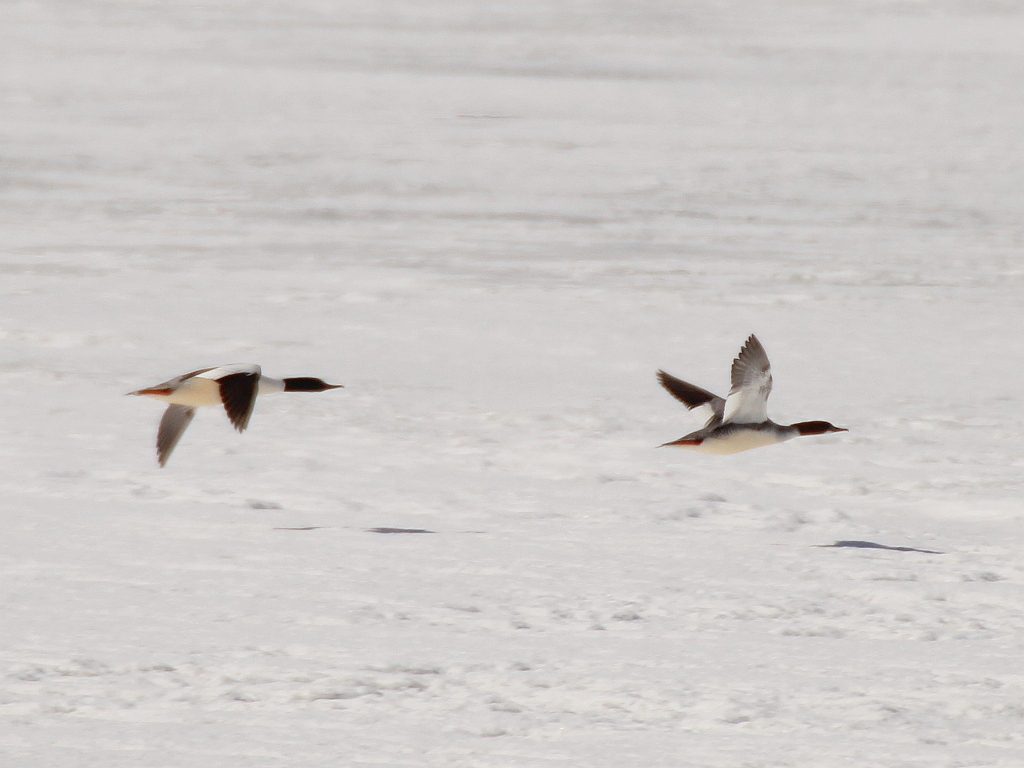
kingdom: Animalia
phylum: Chordata
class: Aves
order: Anseriformes
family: Anatidae
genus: Mergus
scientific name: Mergus merganser
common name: Common merganser
